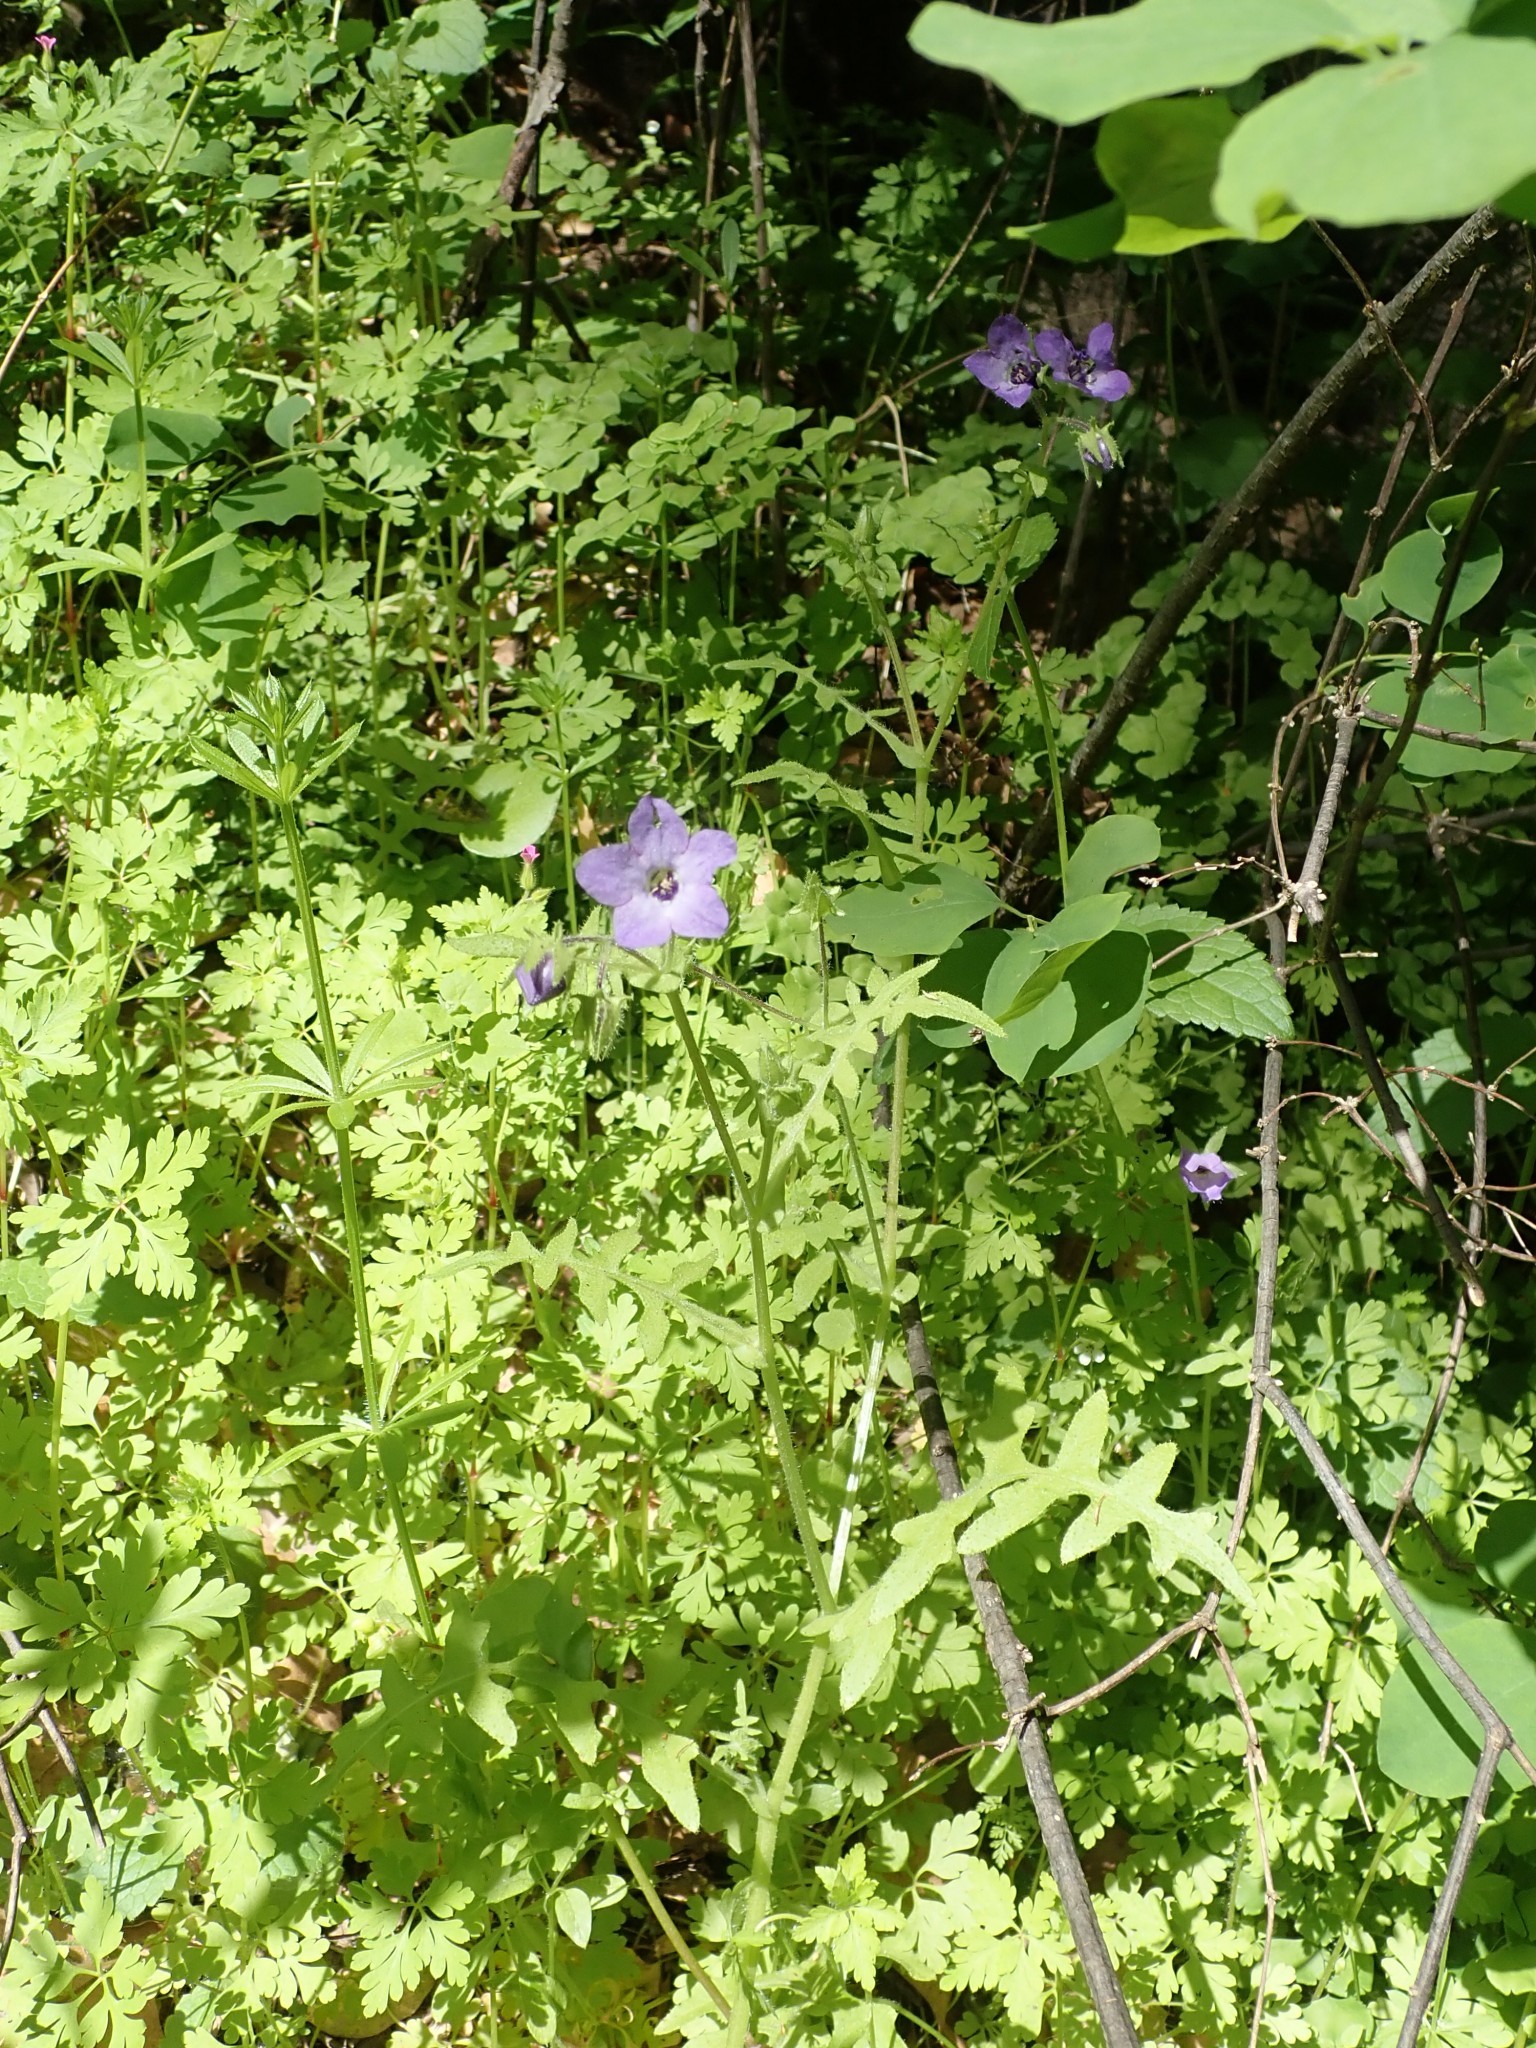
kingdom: Plantae
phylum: Tracheophyta
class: Magnoliopsida
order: Boraginales
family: Hydrophyllaceae
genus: Pholistoma
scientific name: Pholistoma auritum
